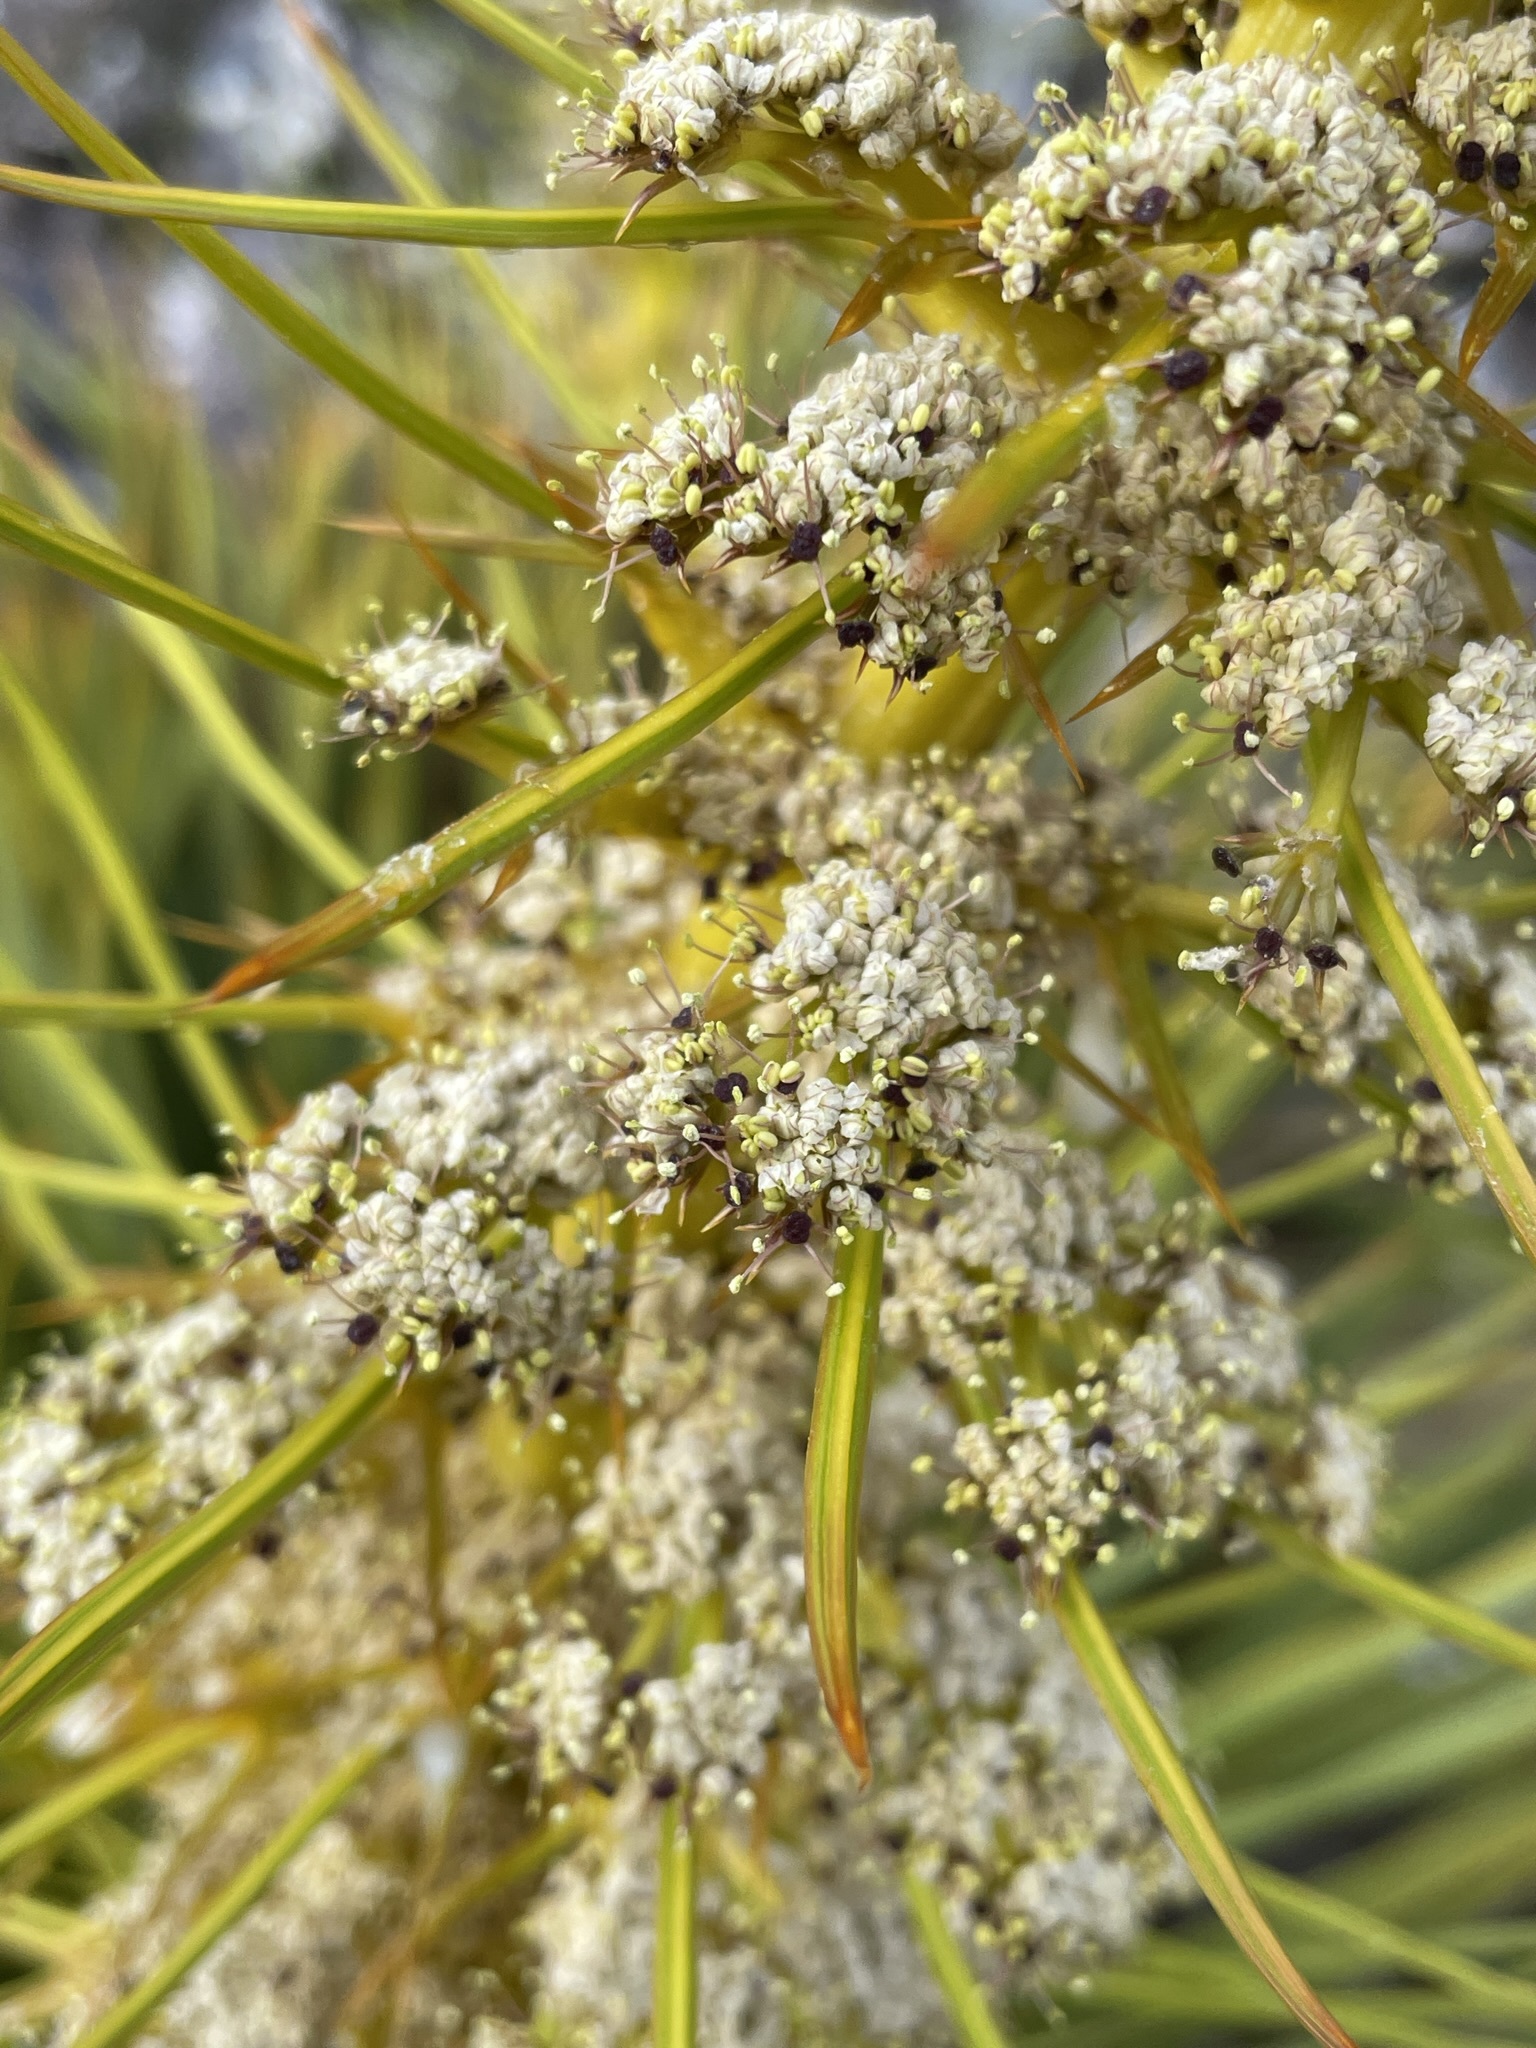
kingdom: Plantae
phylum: Tracheophyta
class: Magnoliopsida
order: Apiales
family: Apiaceae
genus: Aciphylla
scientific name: Aciphylla aurea
